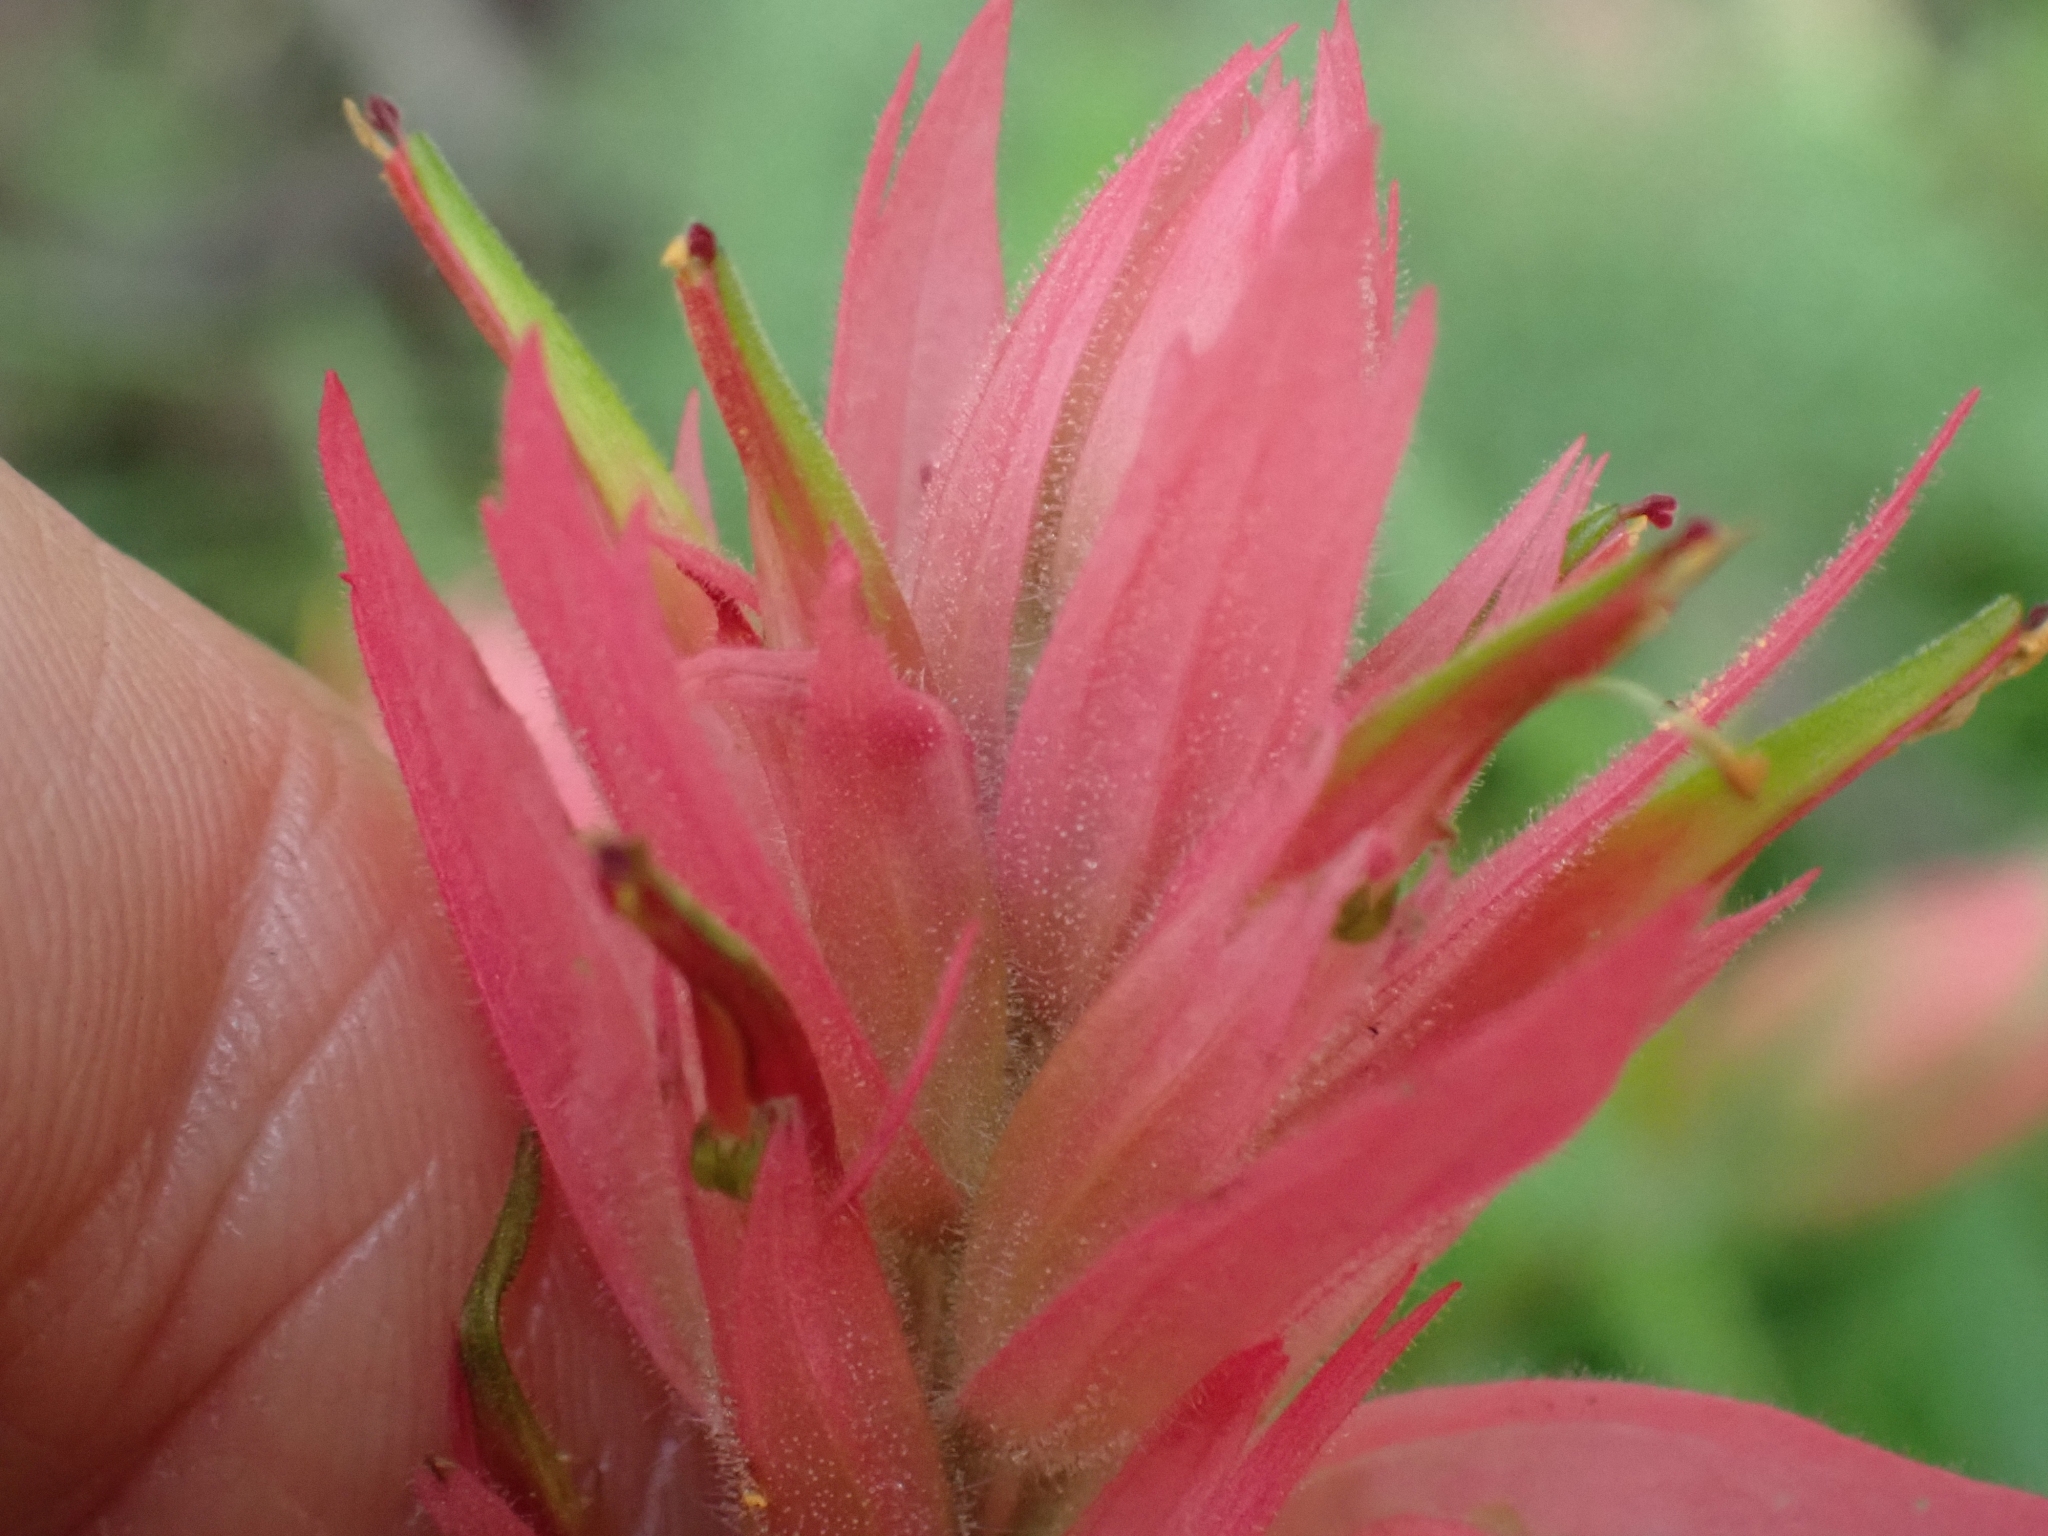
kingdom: Plantae
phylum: Tracheophyta
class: Magnoliopsida
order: Lamiales
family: Orobanchaceae
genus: Castilleja
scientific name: Castilleja miniata
